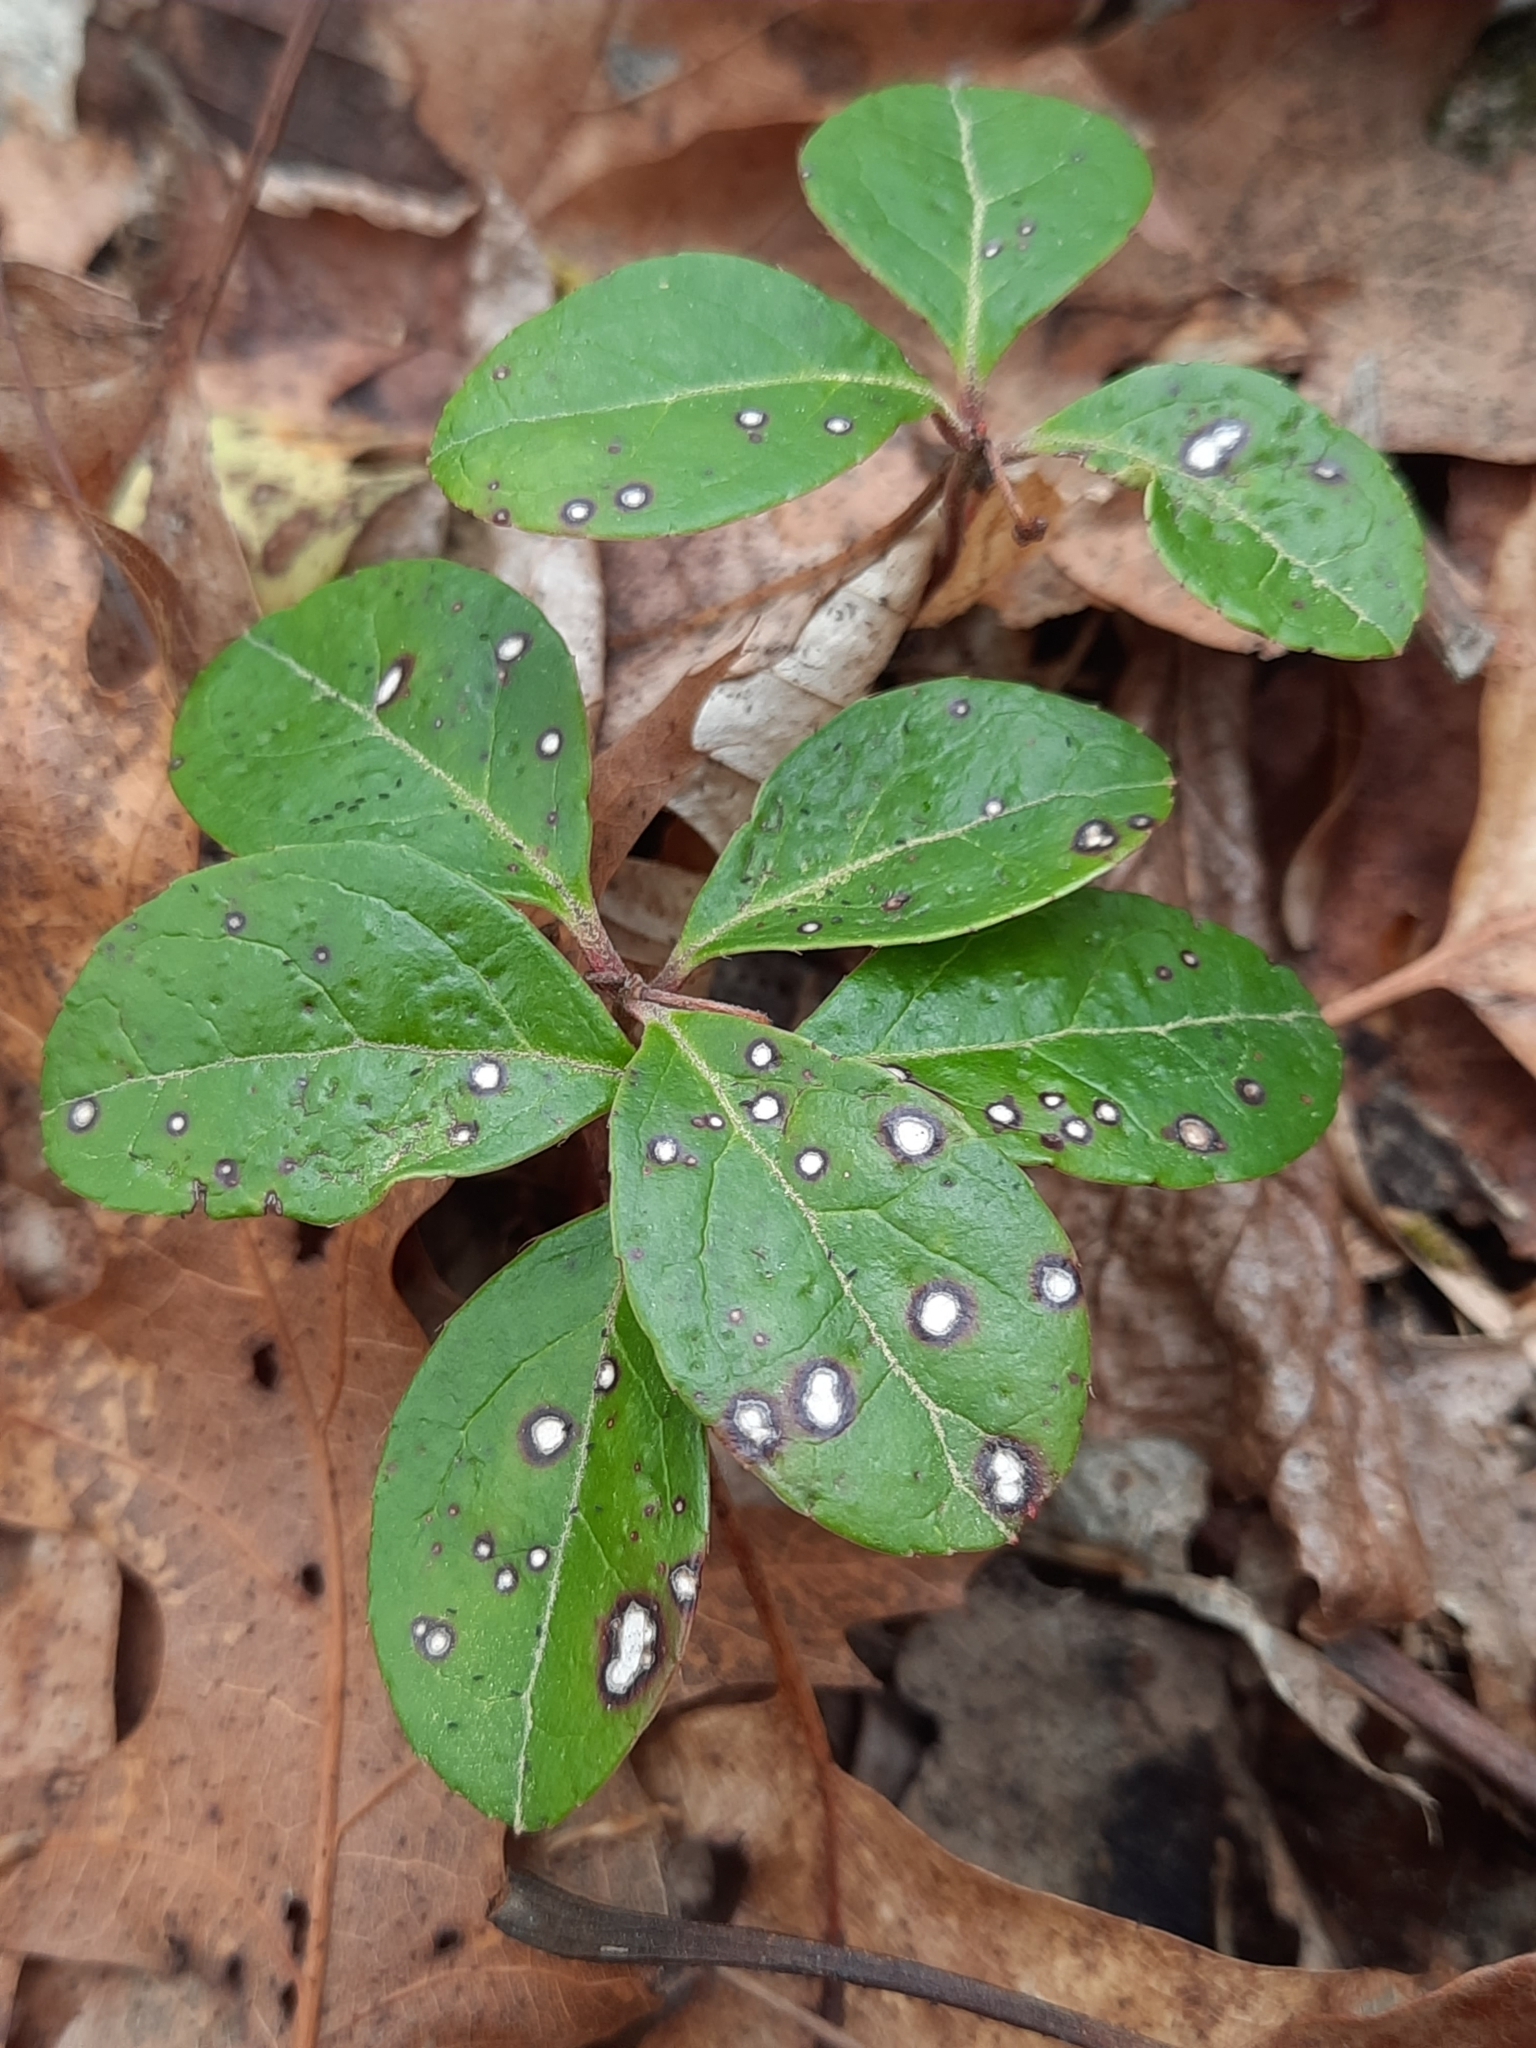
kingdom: Plantae
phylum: Tracheophyta
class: Magnoliopsida
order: Ericales
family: Ericaceae
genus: Gaultheria
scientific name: Gaultheria procumbens
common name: Checkerberry
